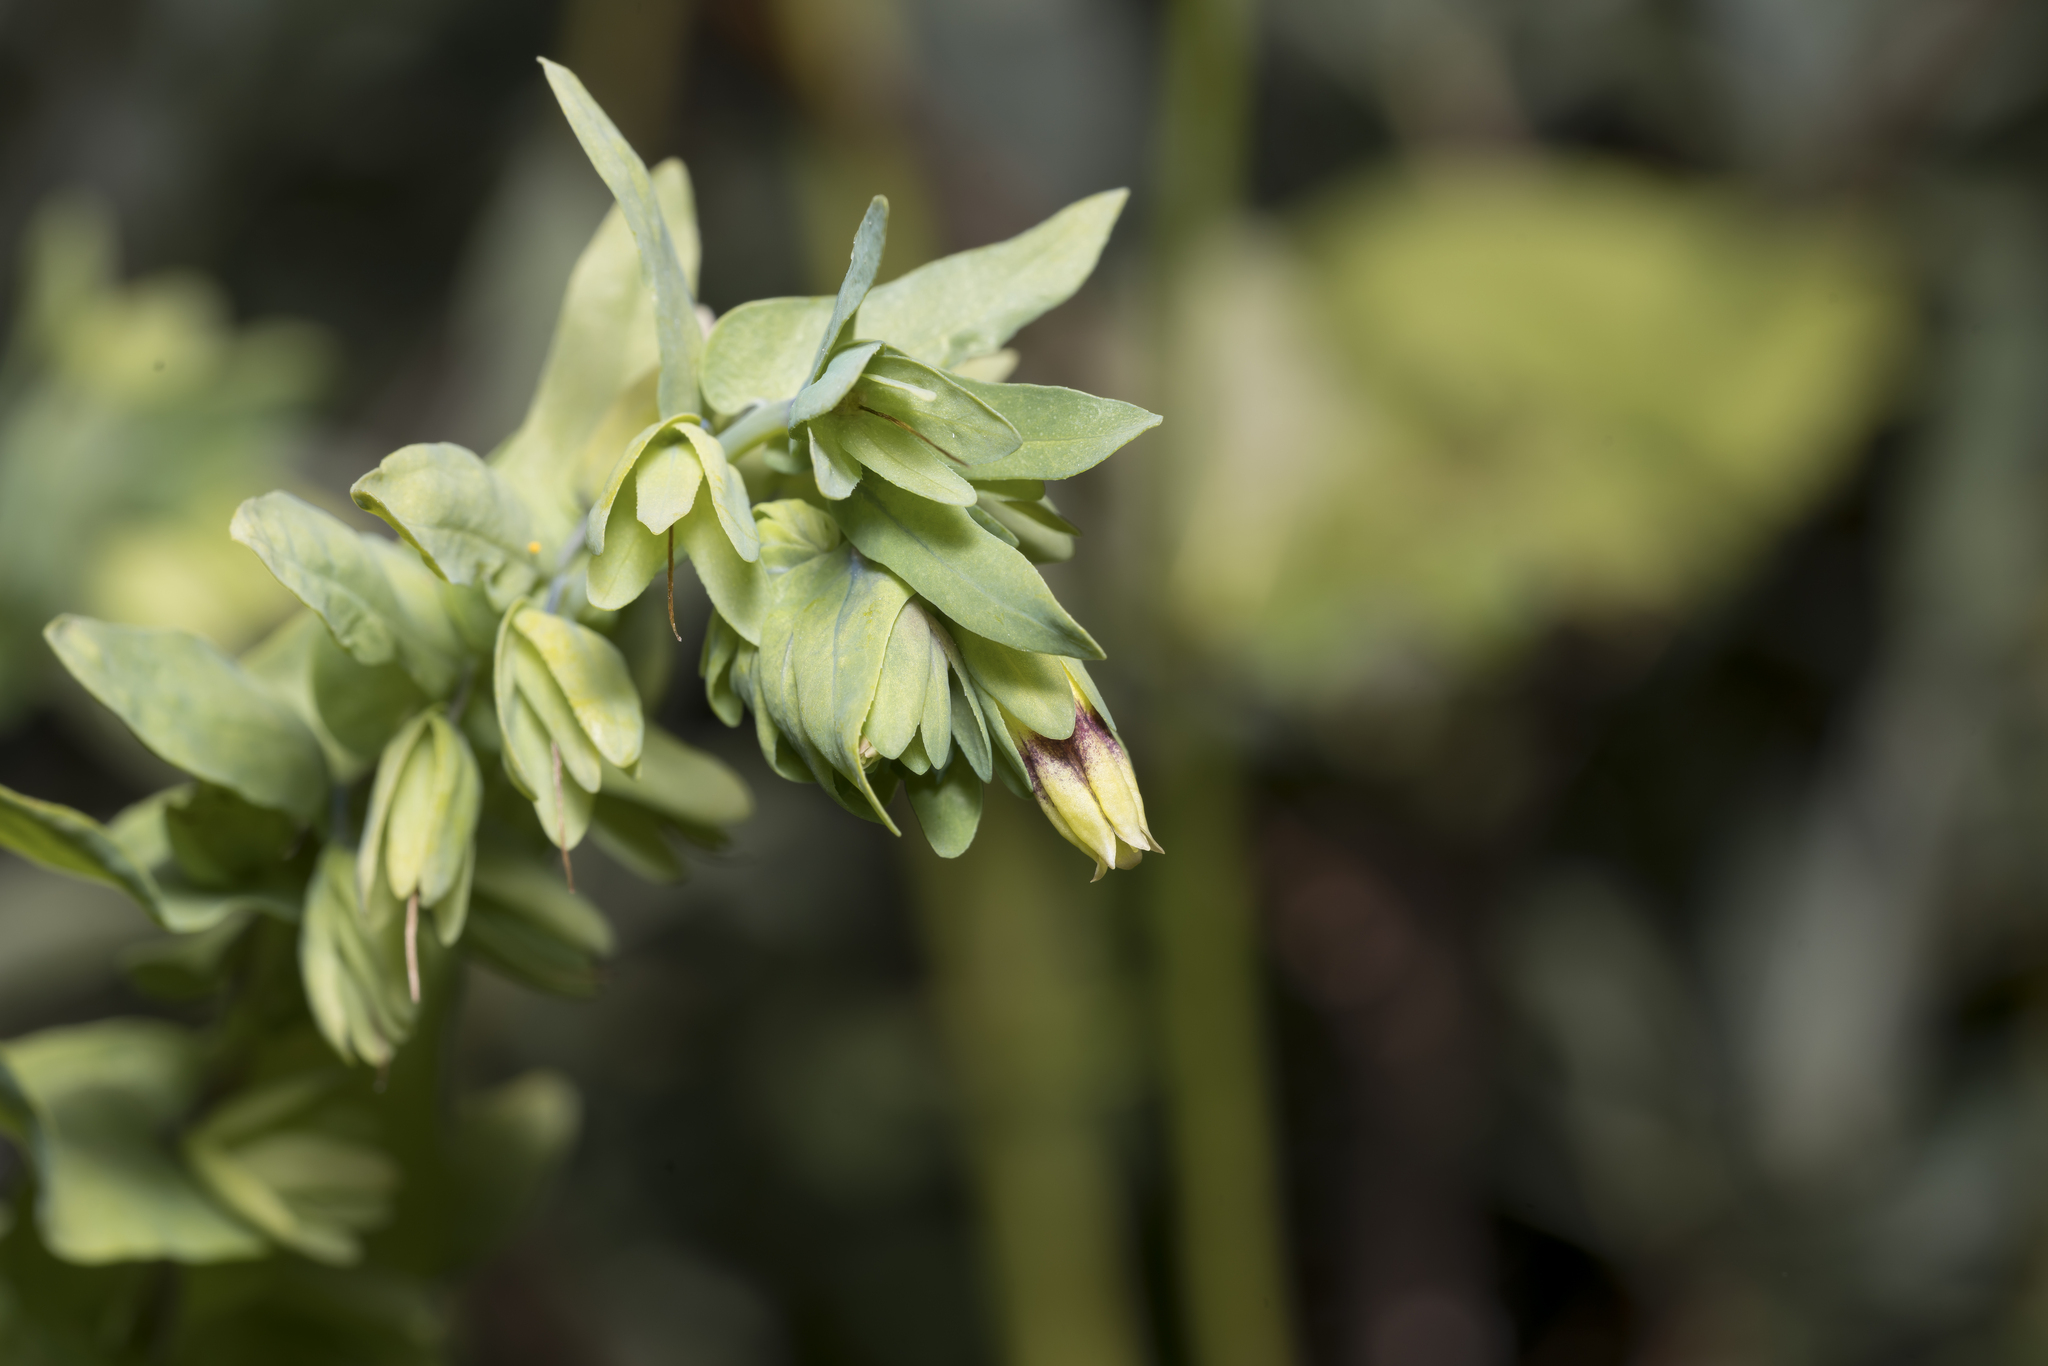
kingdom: Plantae
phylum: Tracheophyta
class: Magnoliopsida
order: Boraginales
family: Boraginaceae
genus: Cerinthe
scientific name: Cerinthe glabra
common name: Smooth honeywort
